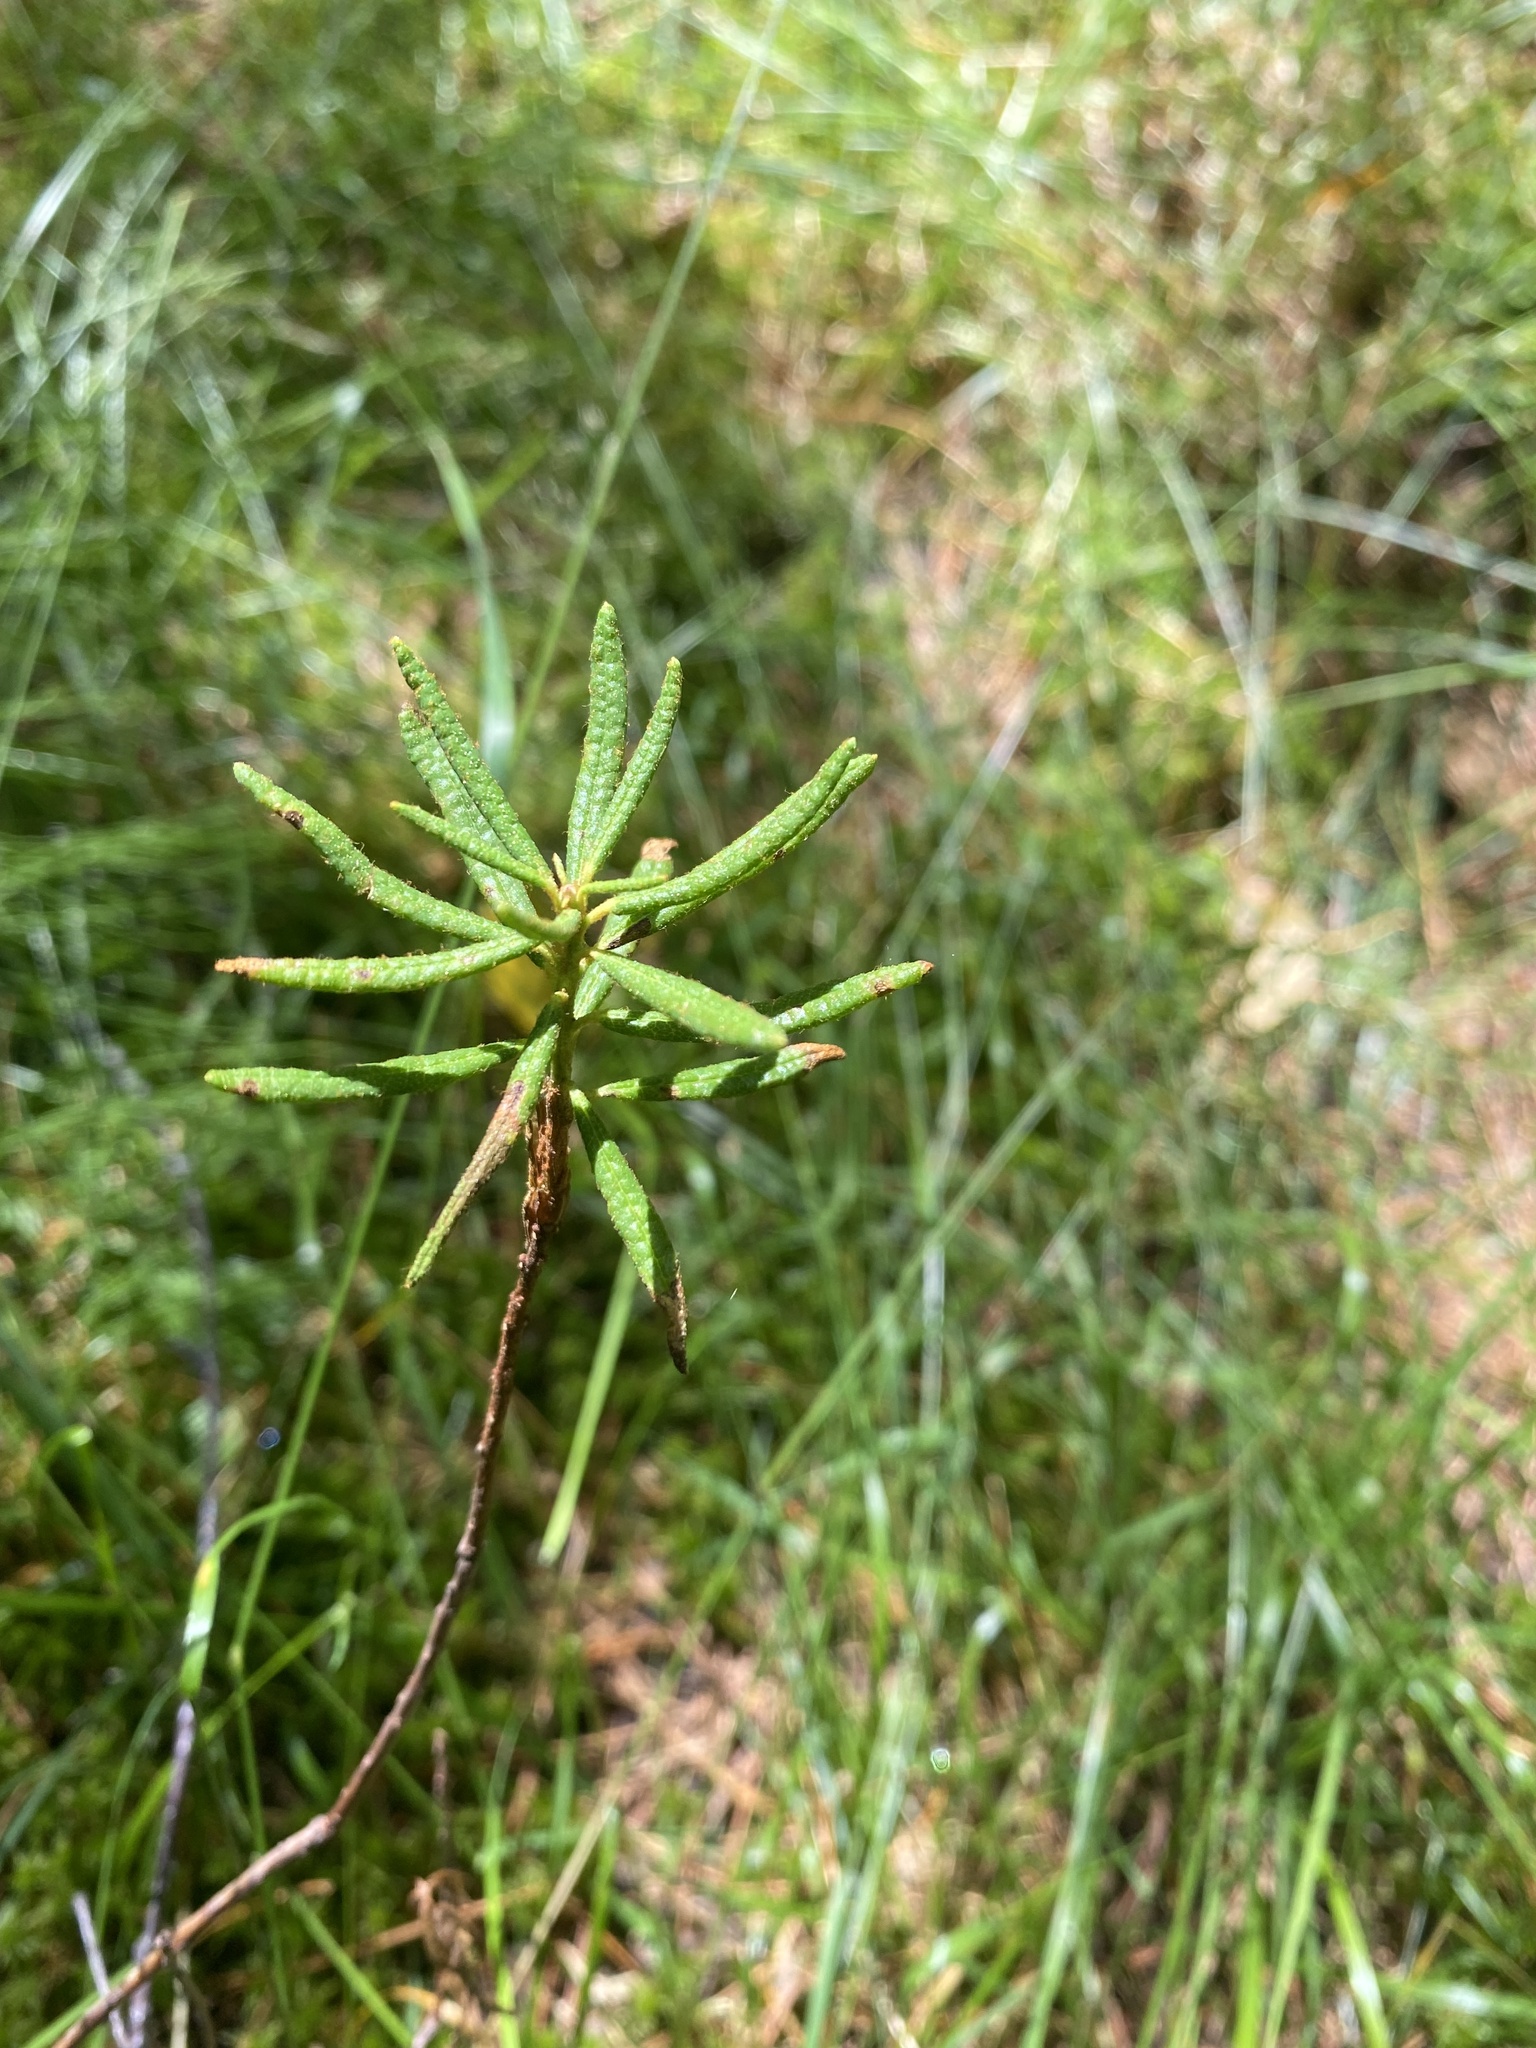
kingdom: Plantae
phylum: Tracheophyta
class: Magnoliopsida
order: Ericales
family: Ericaceae
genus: Rhododendron
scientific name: Rhododendron tomentosum
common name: Marsh labrador tea
